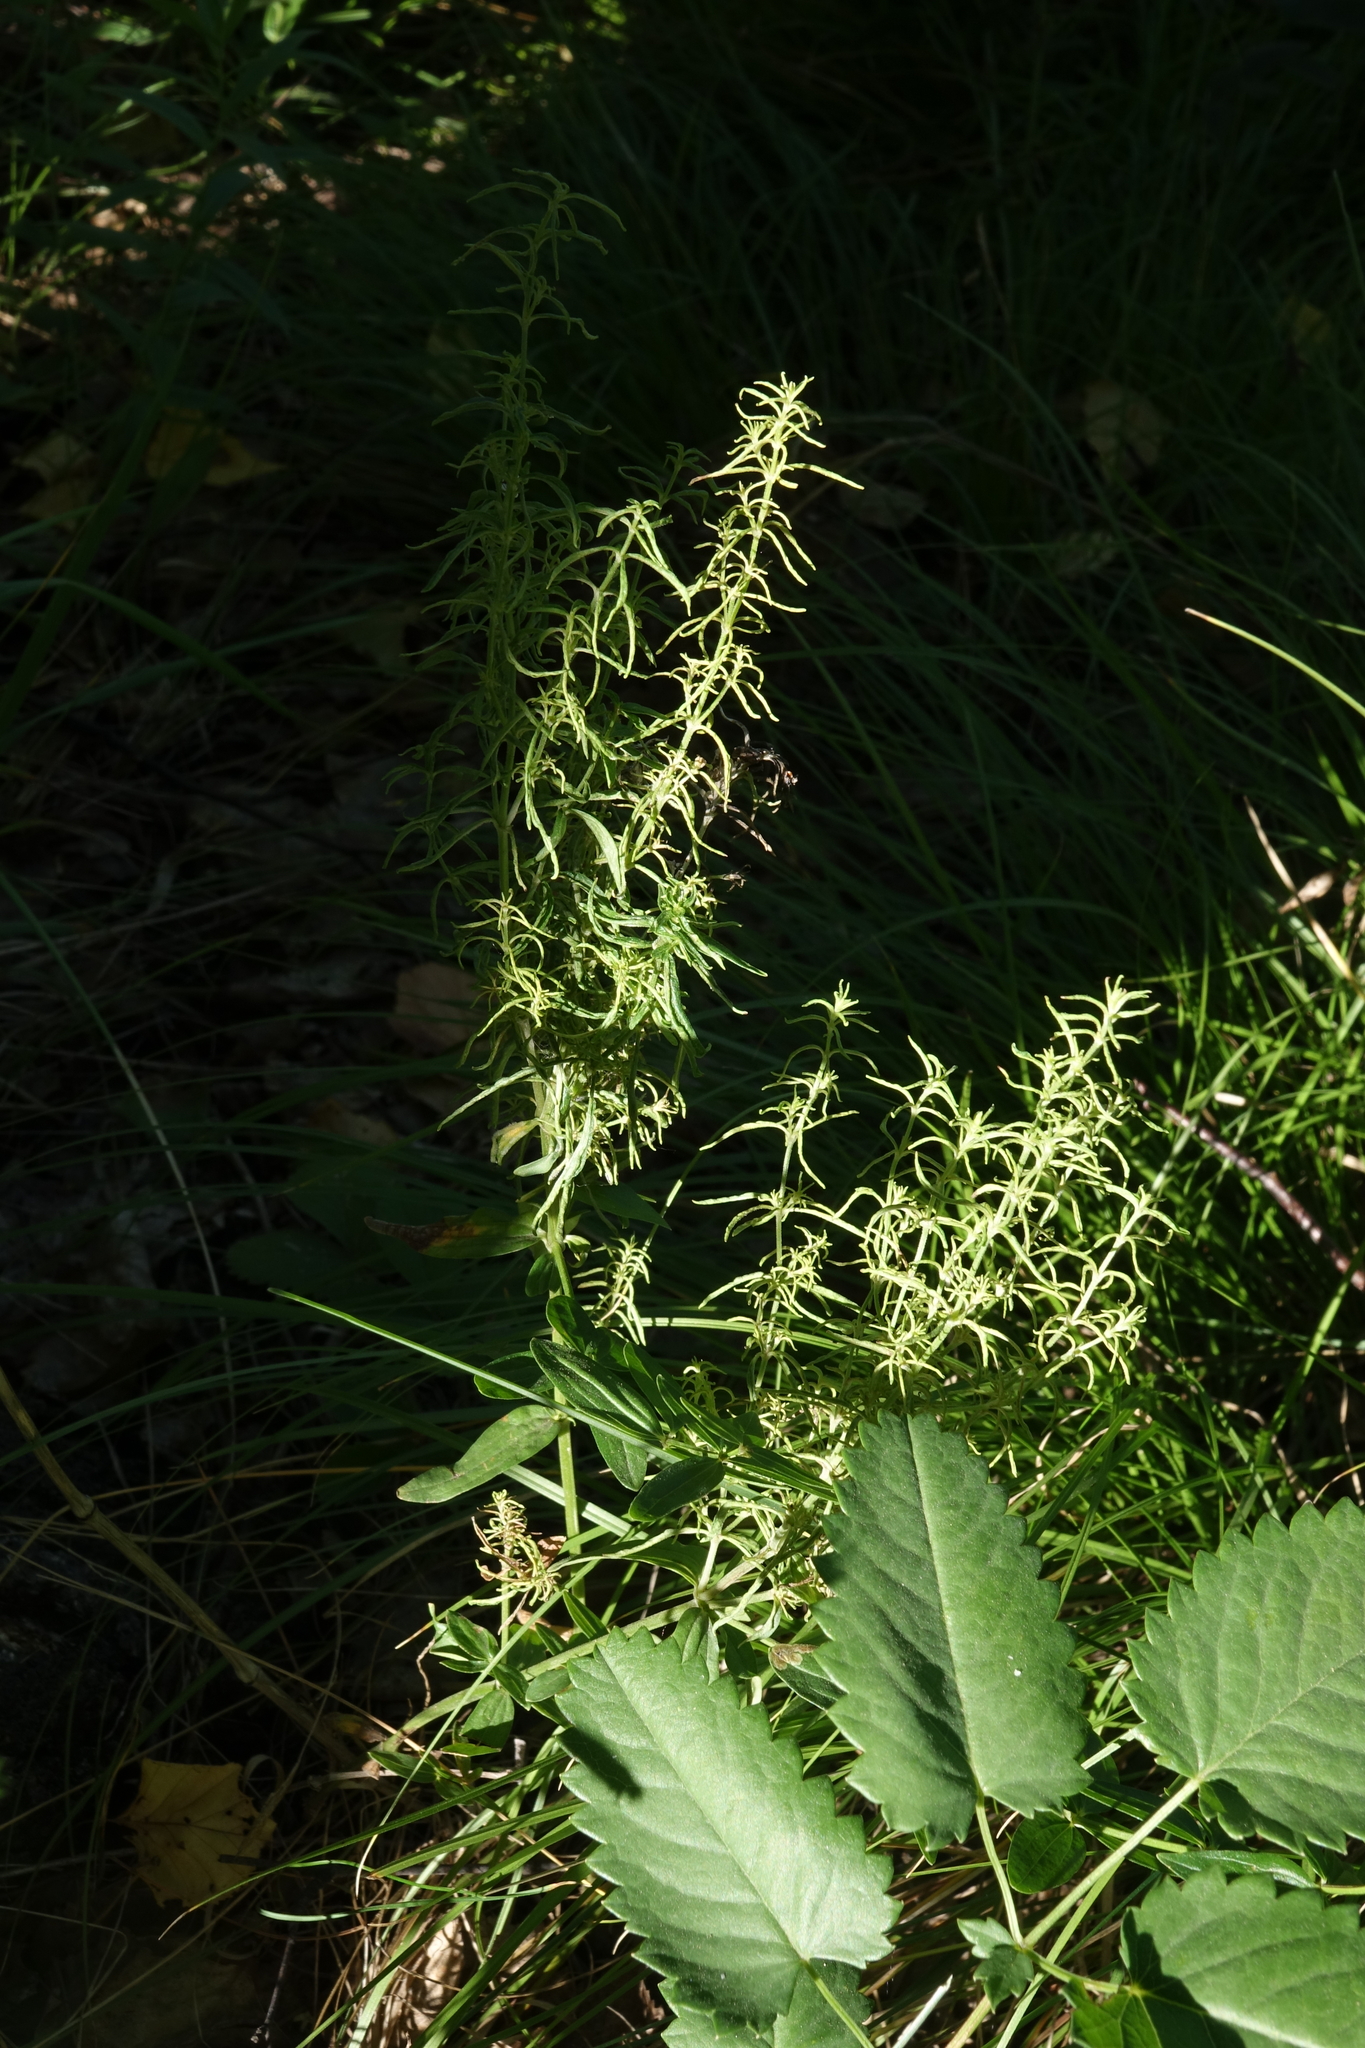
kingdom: Plantae
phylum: Tracheophyta
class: Magnoliopsida
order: Rosales
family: Urticaceae
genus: Urtica
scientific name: Urtica dioica
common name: Common nettle
